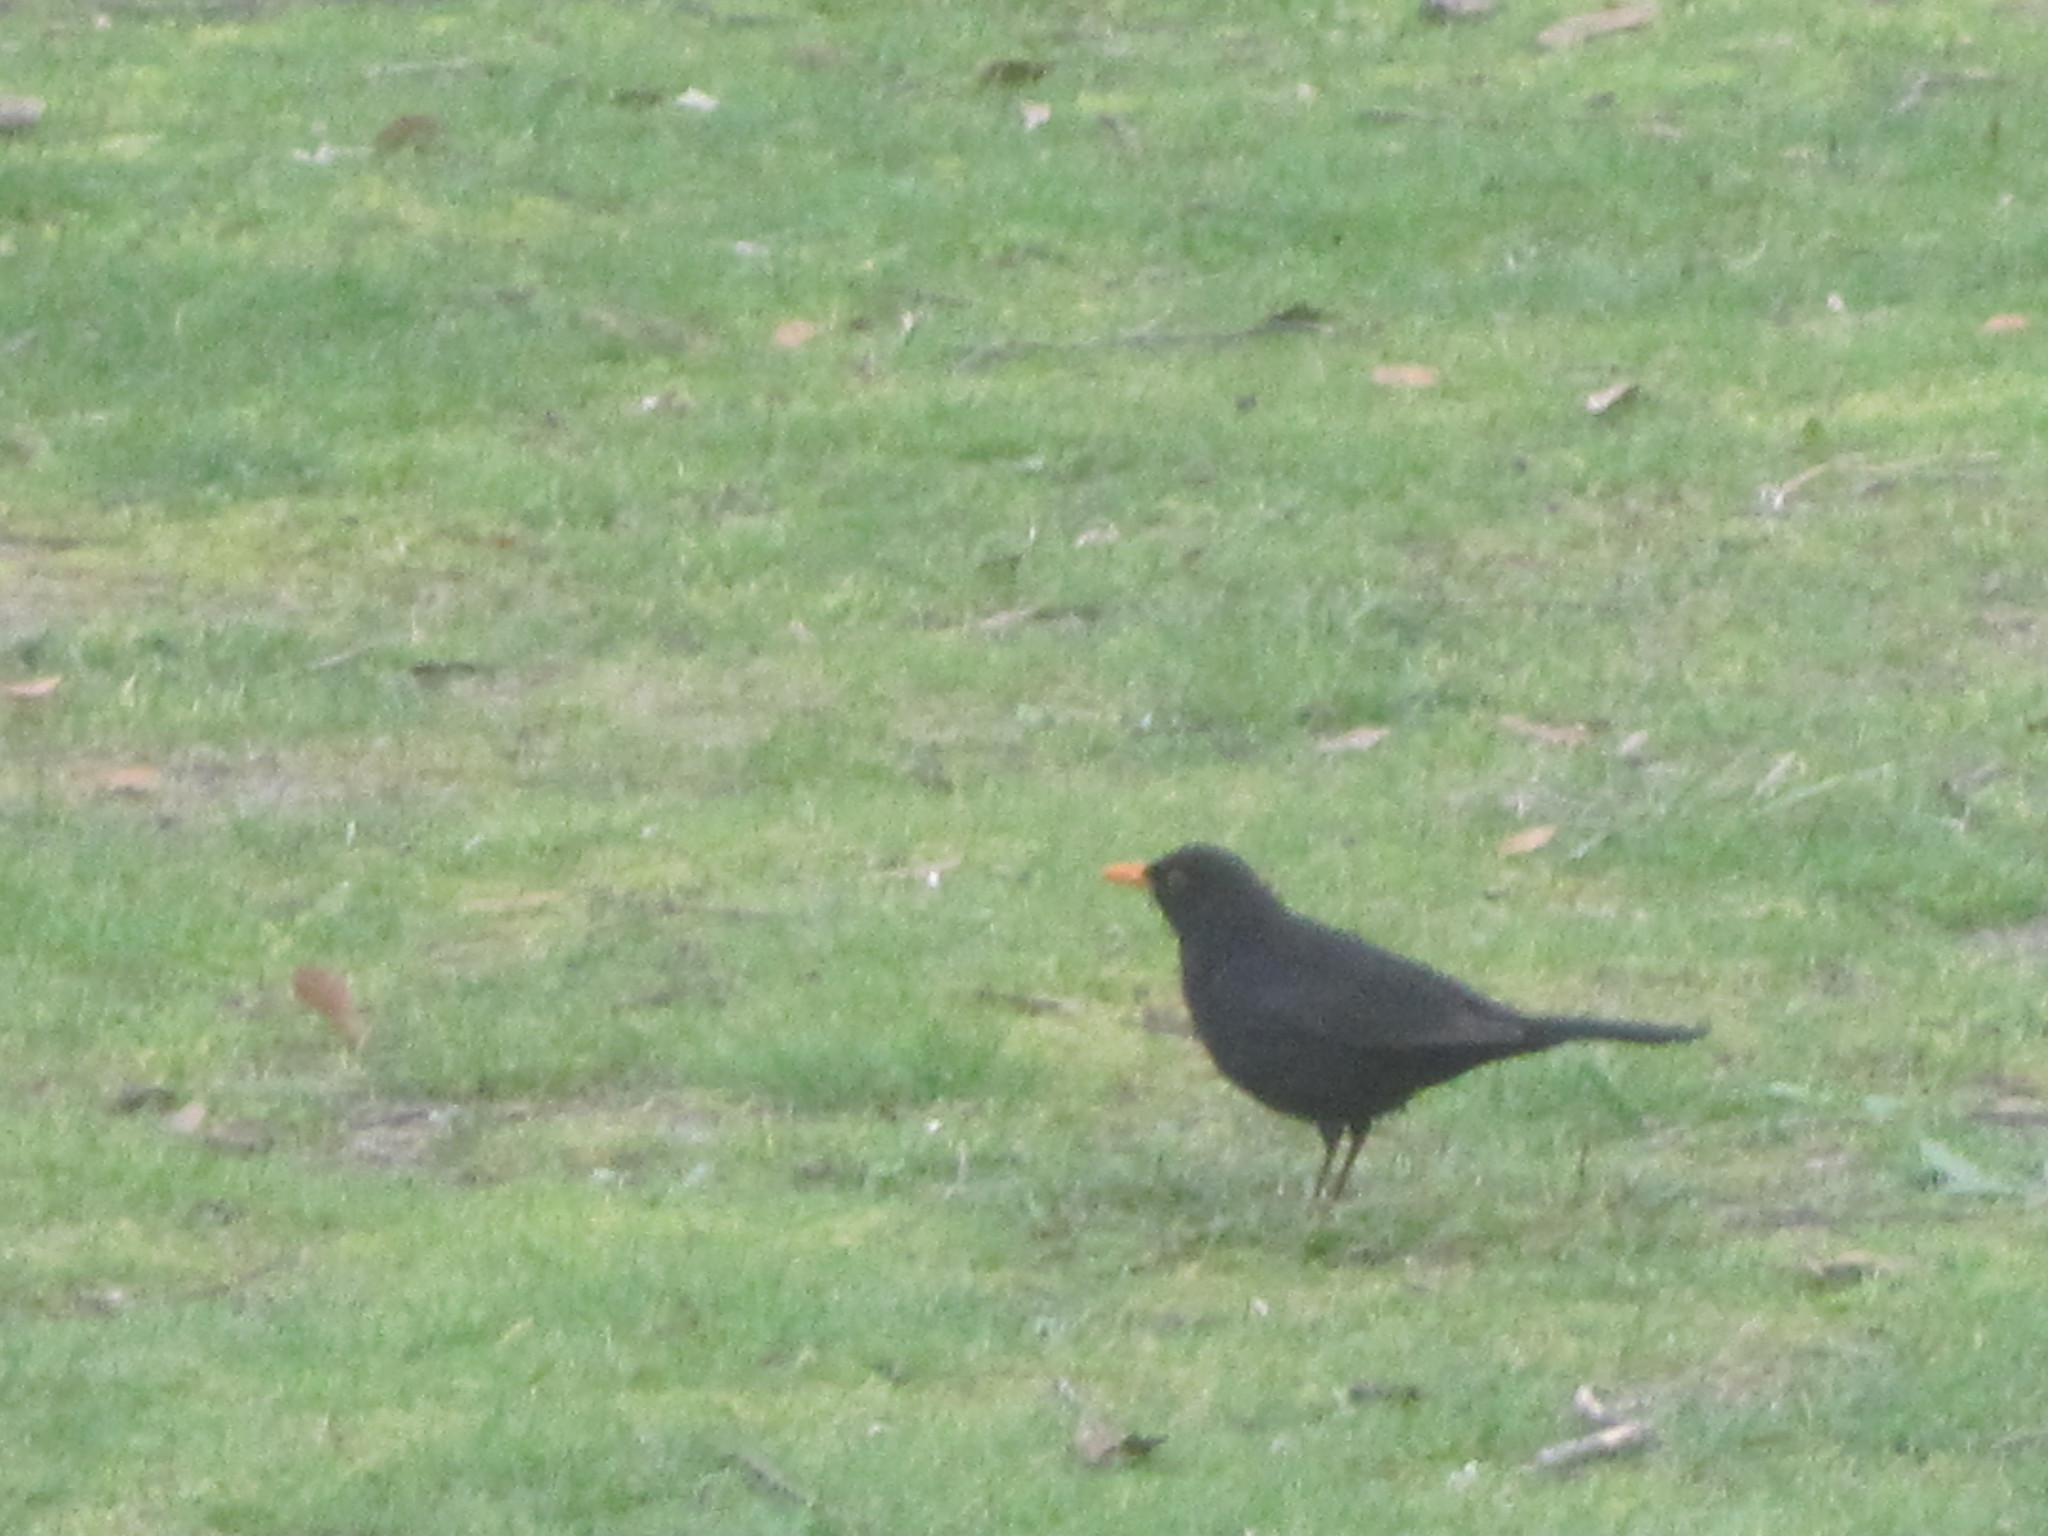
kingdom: Animalia
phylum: Chordata
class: Aves
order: Passeriformes
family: Turdidae
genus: Turdus
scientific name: Turdus merula
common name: Common blackbird
